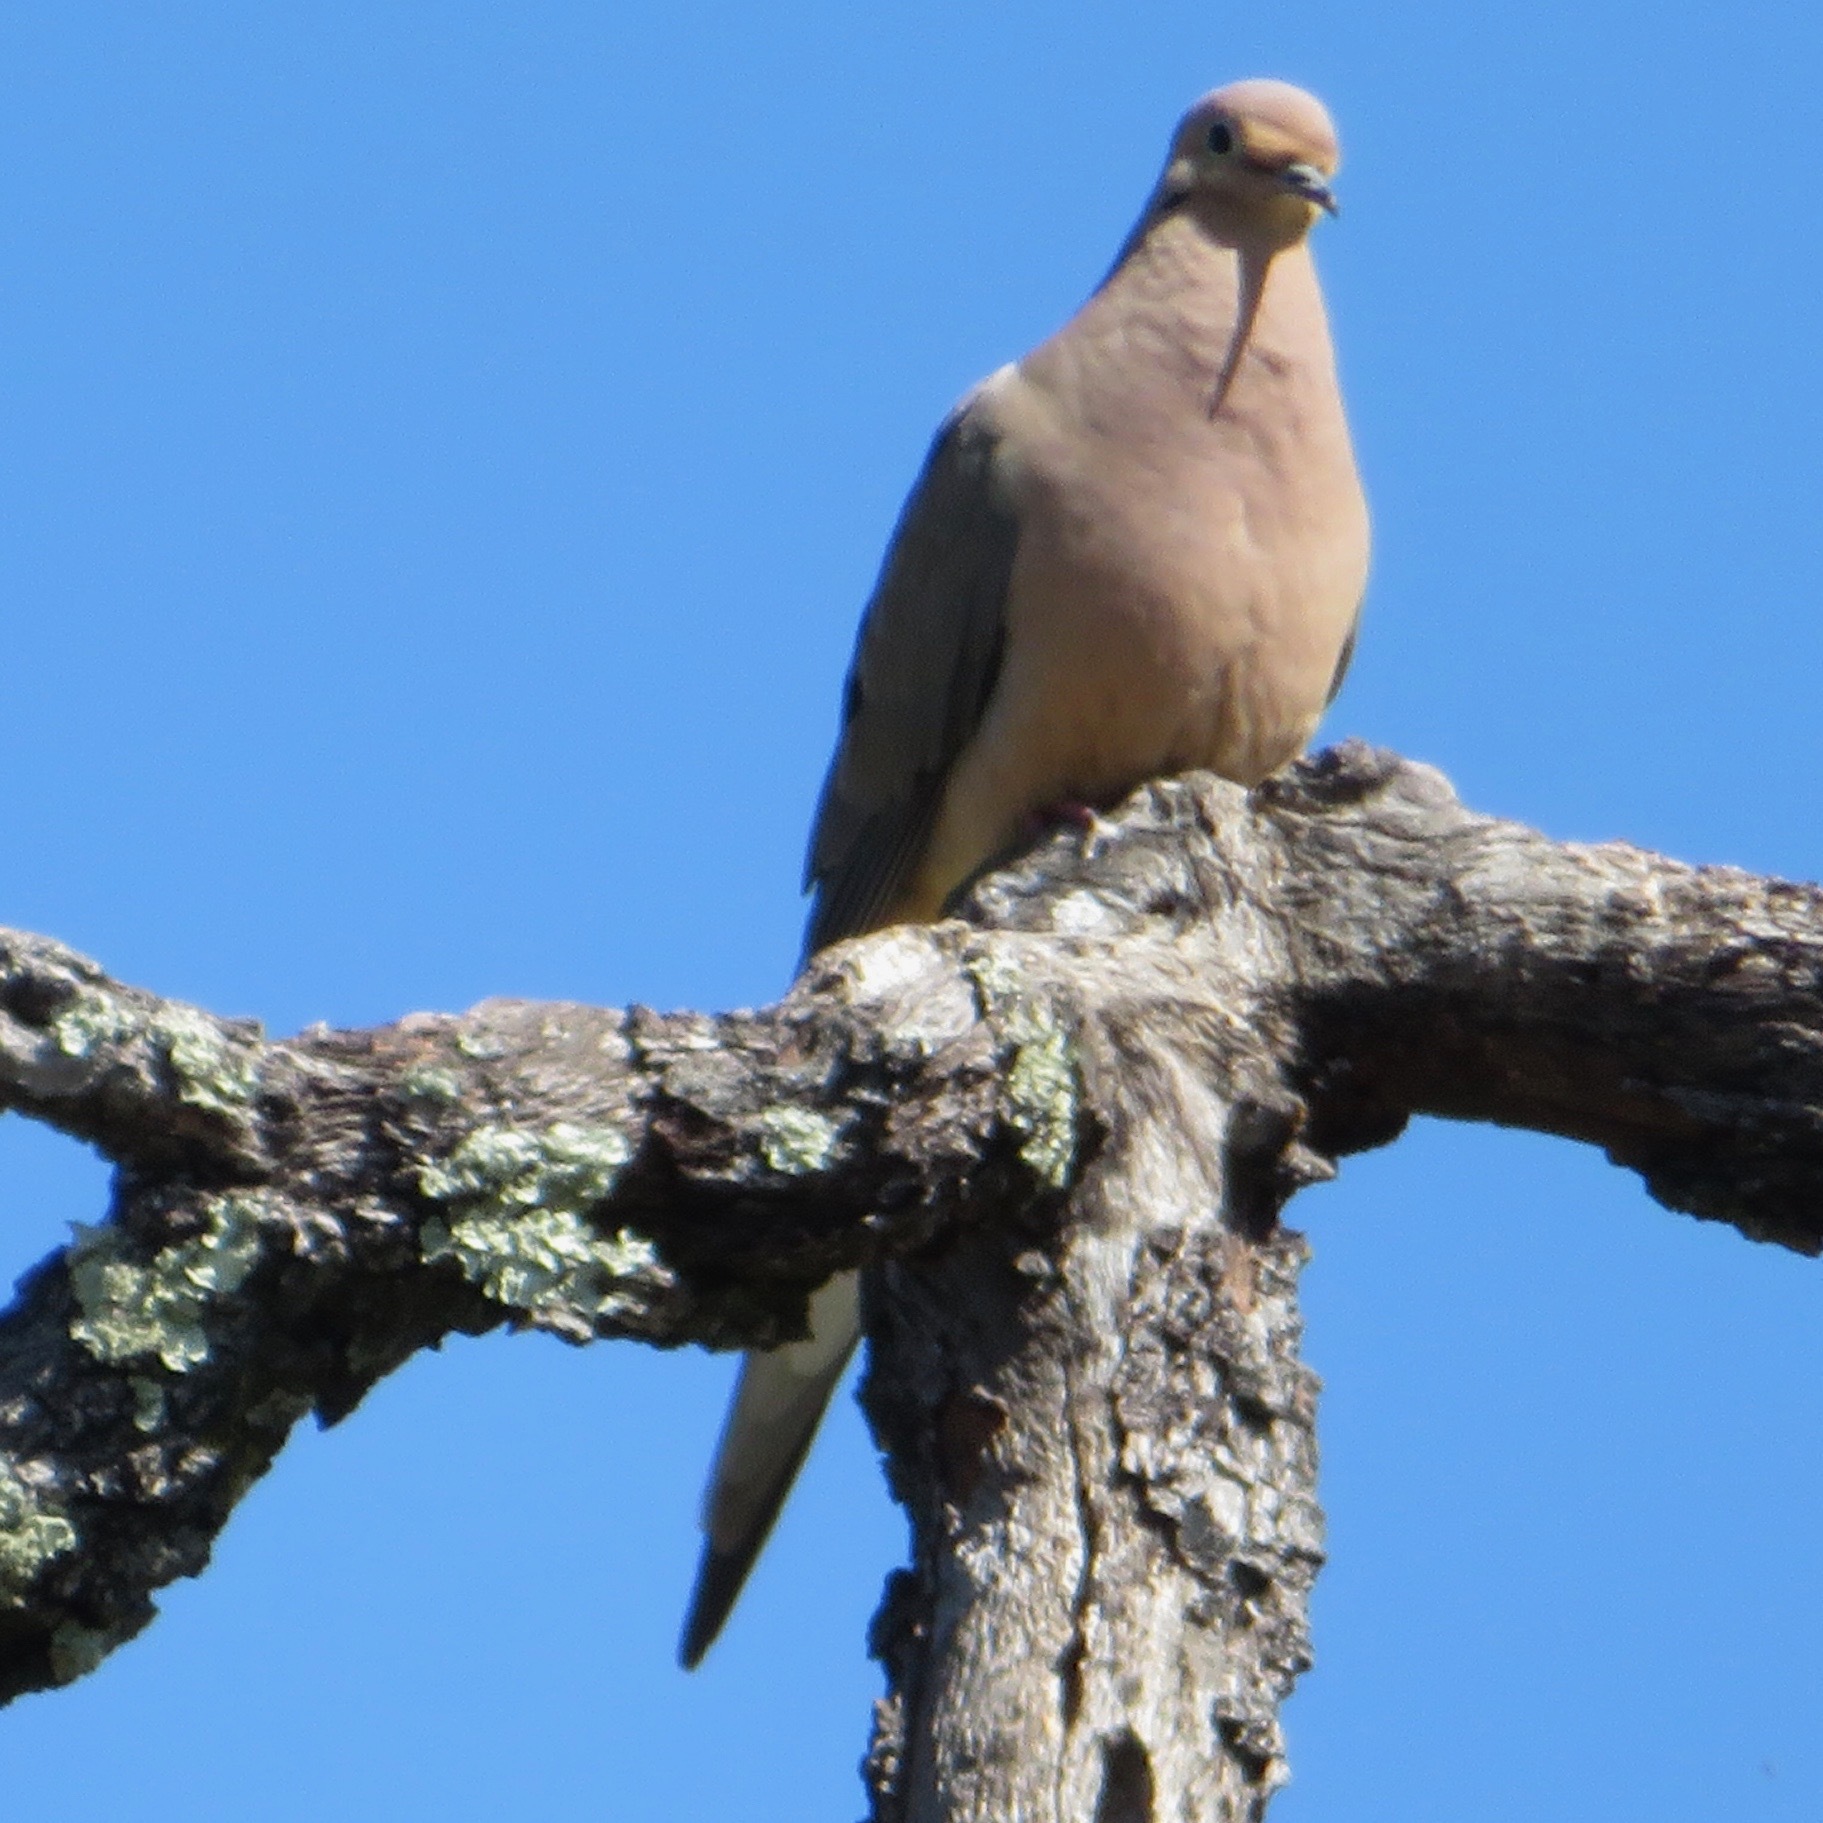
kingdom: Animalia
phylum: Chordata
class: Aves
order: Columbiformes
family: Columbidae
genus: Zenaida
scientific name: Zenaida macroura
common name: Mourning dove
